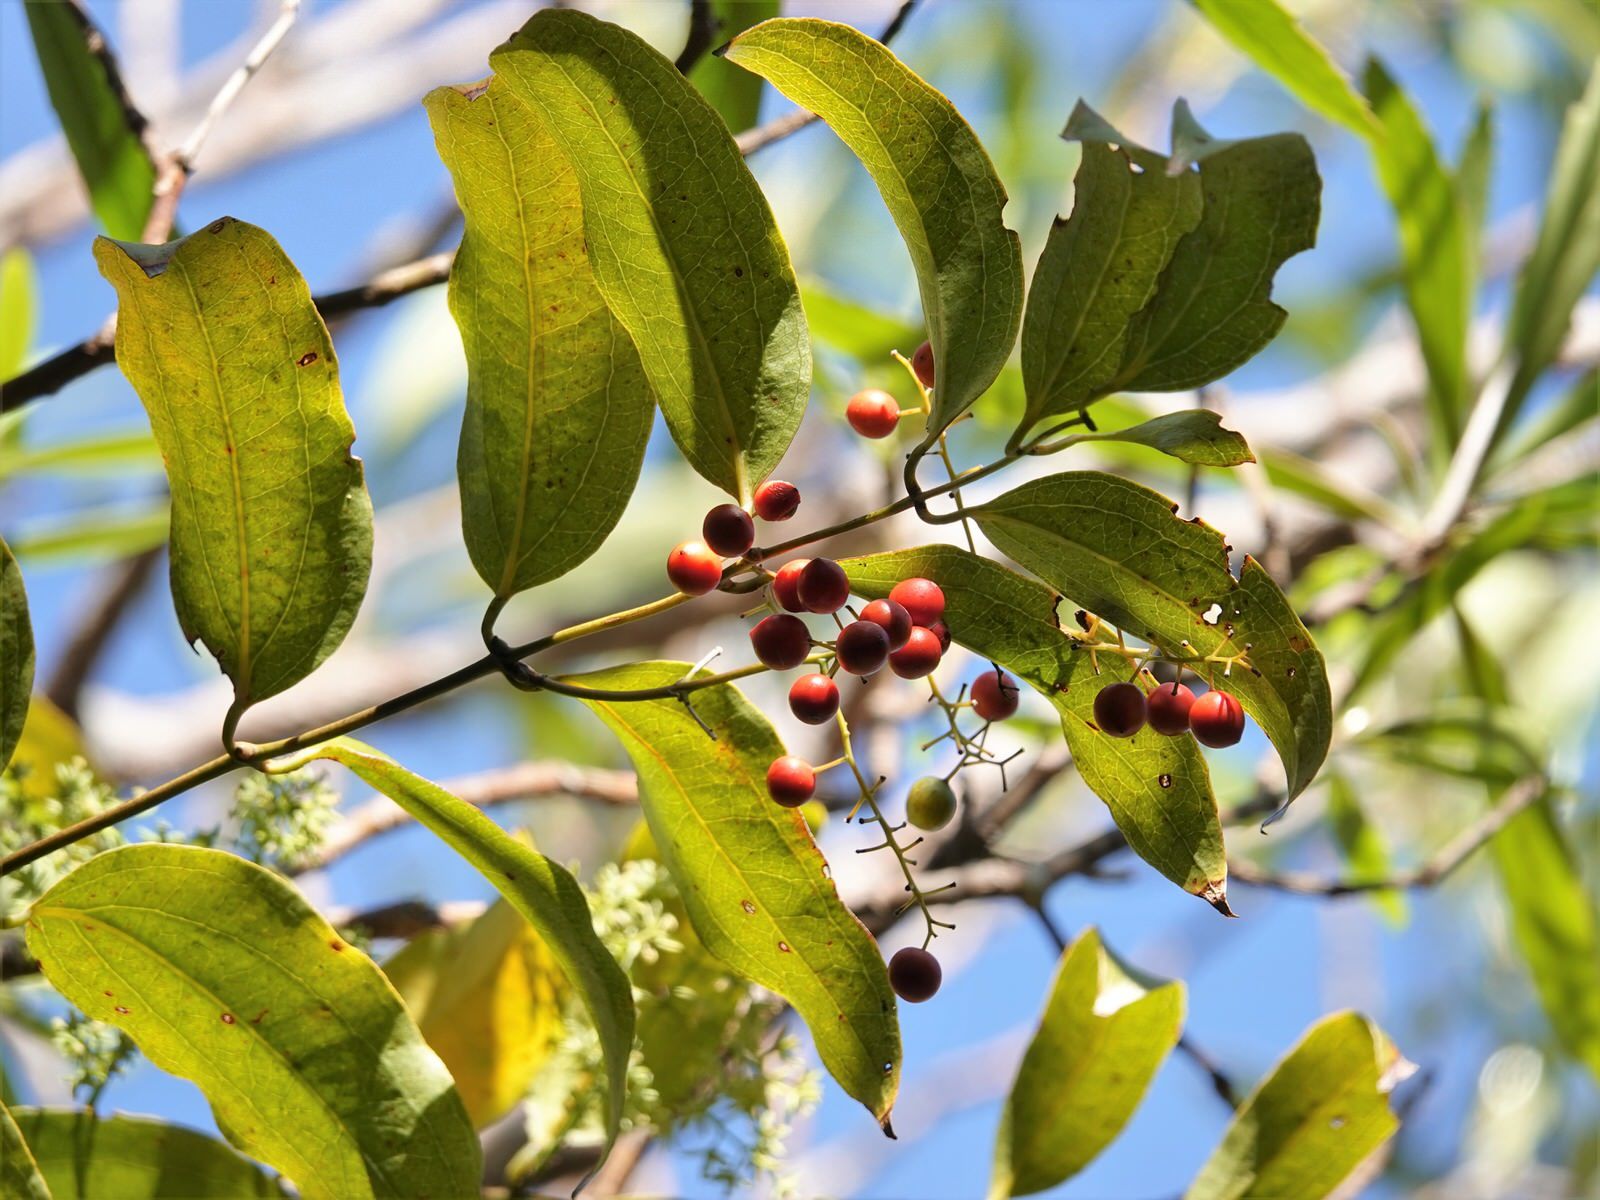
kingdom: Plantae
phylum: Tracheophyta
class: Liliopsida
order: Liliales
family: Ripogonaceae
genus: Ripogonum
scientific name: Ripogonum scandens
